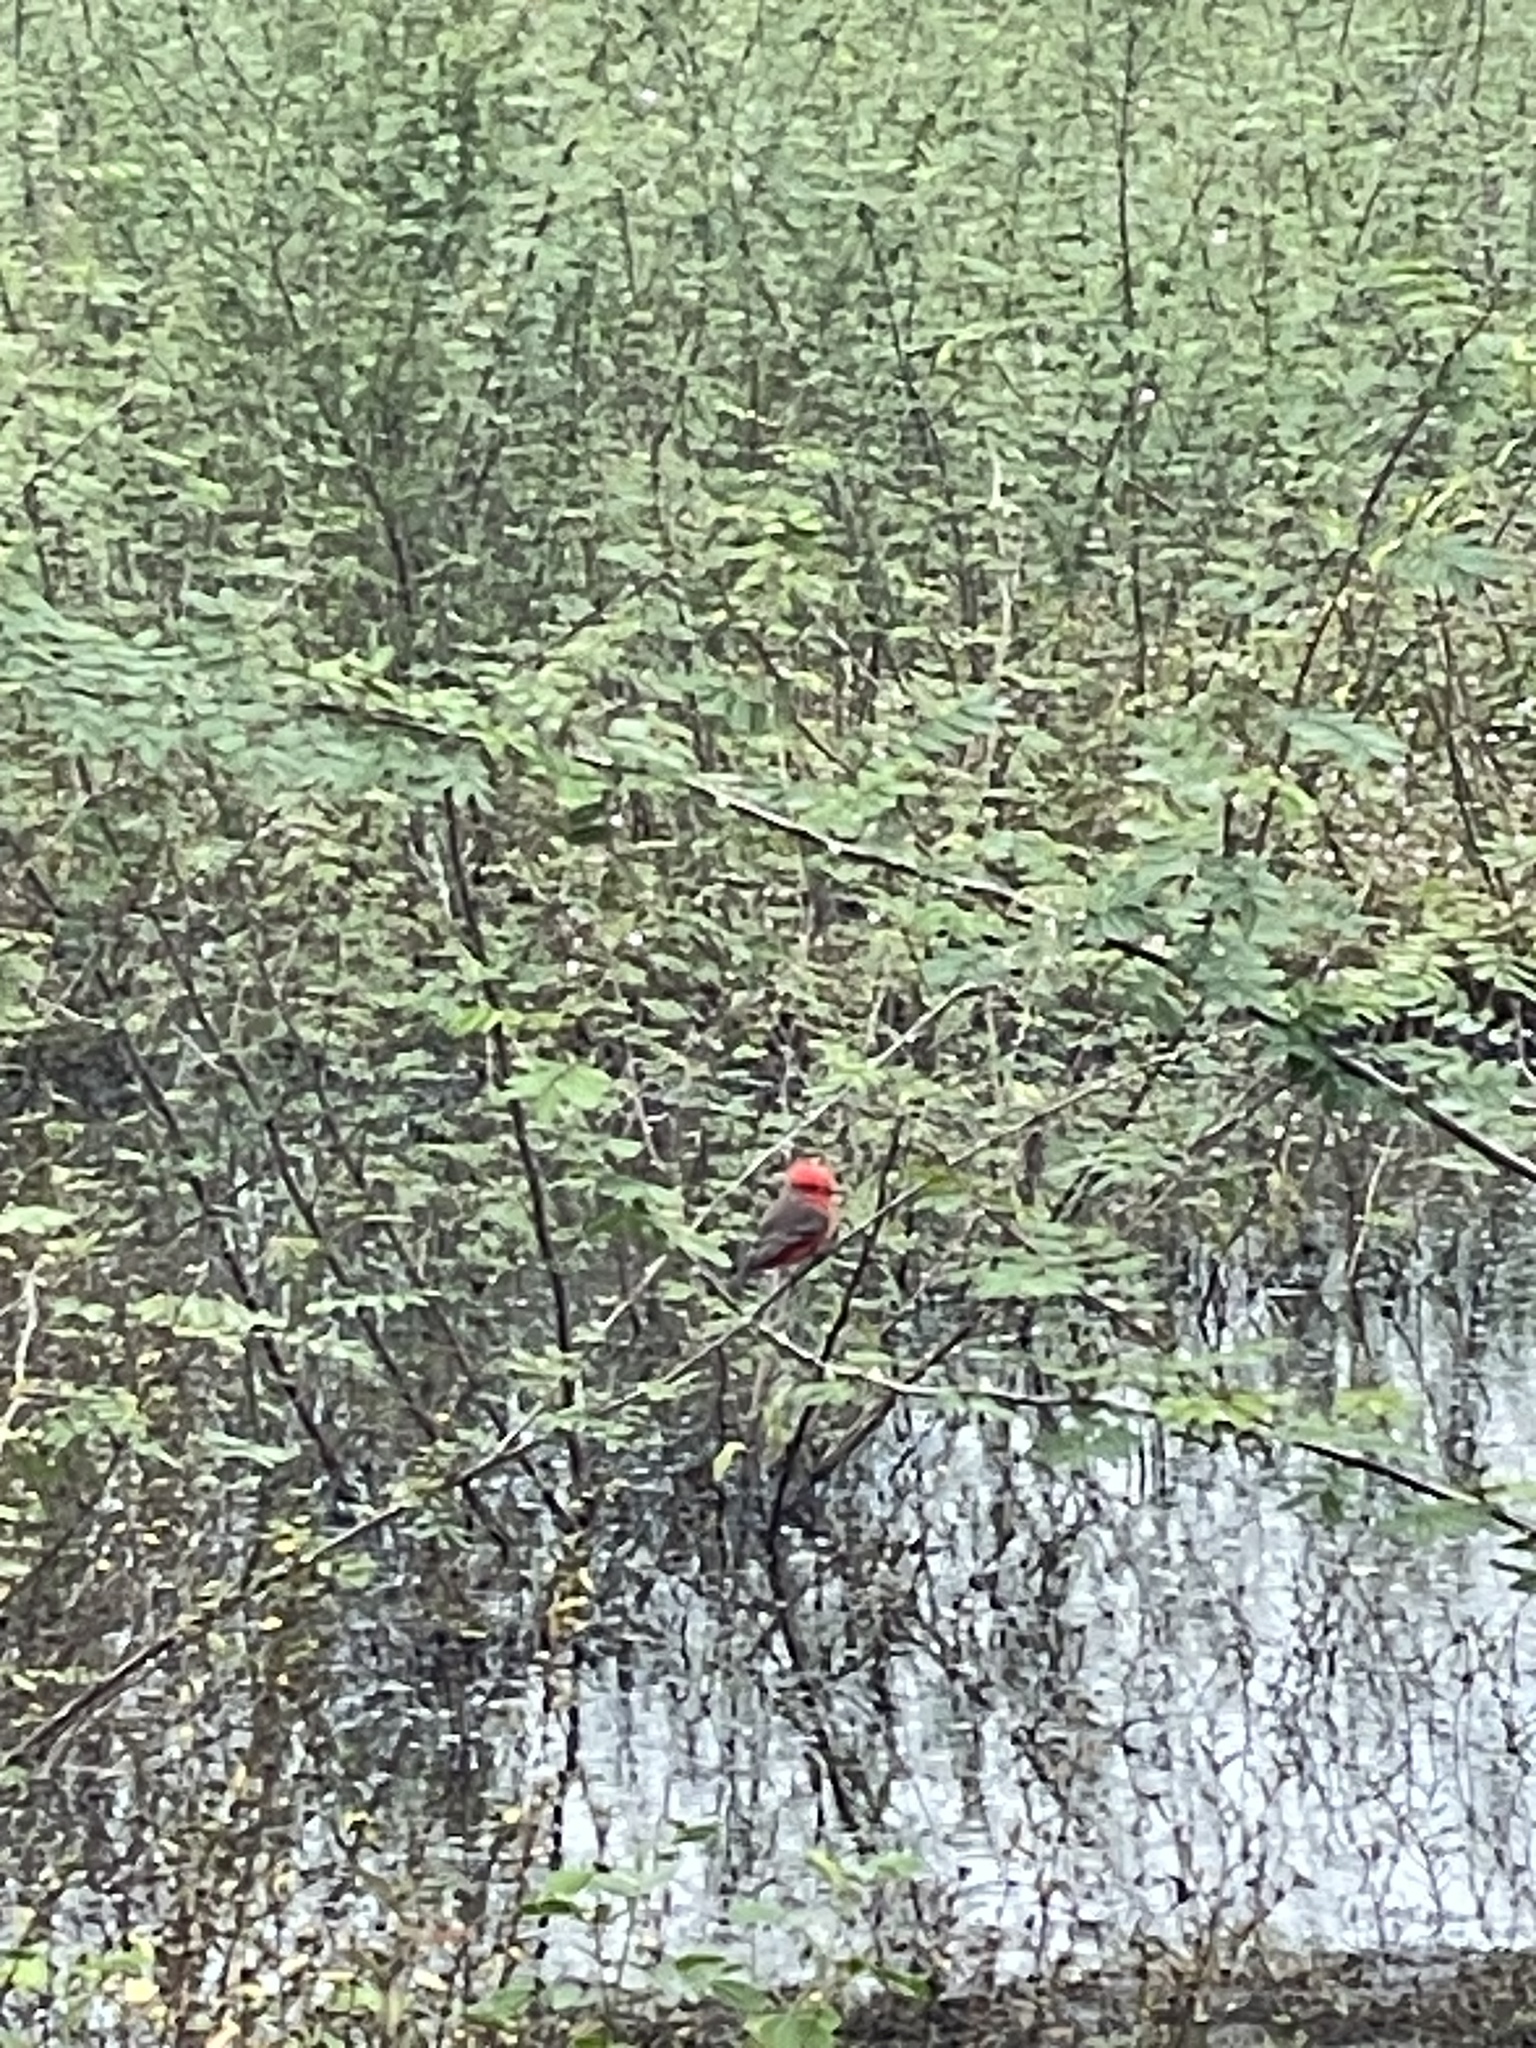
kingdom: Animalia
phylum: Chordata
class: Aves
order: Passeriformes
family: Tyrannidae
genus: Pyrocephalus
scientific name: Pyrocephalus rubinus
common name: Vermilion flycatcher
